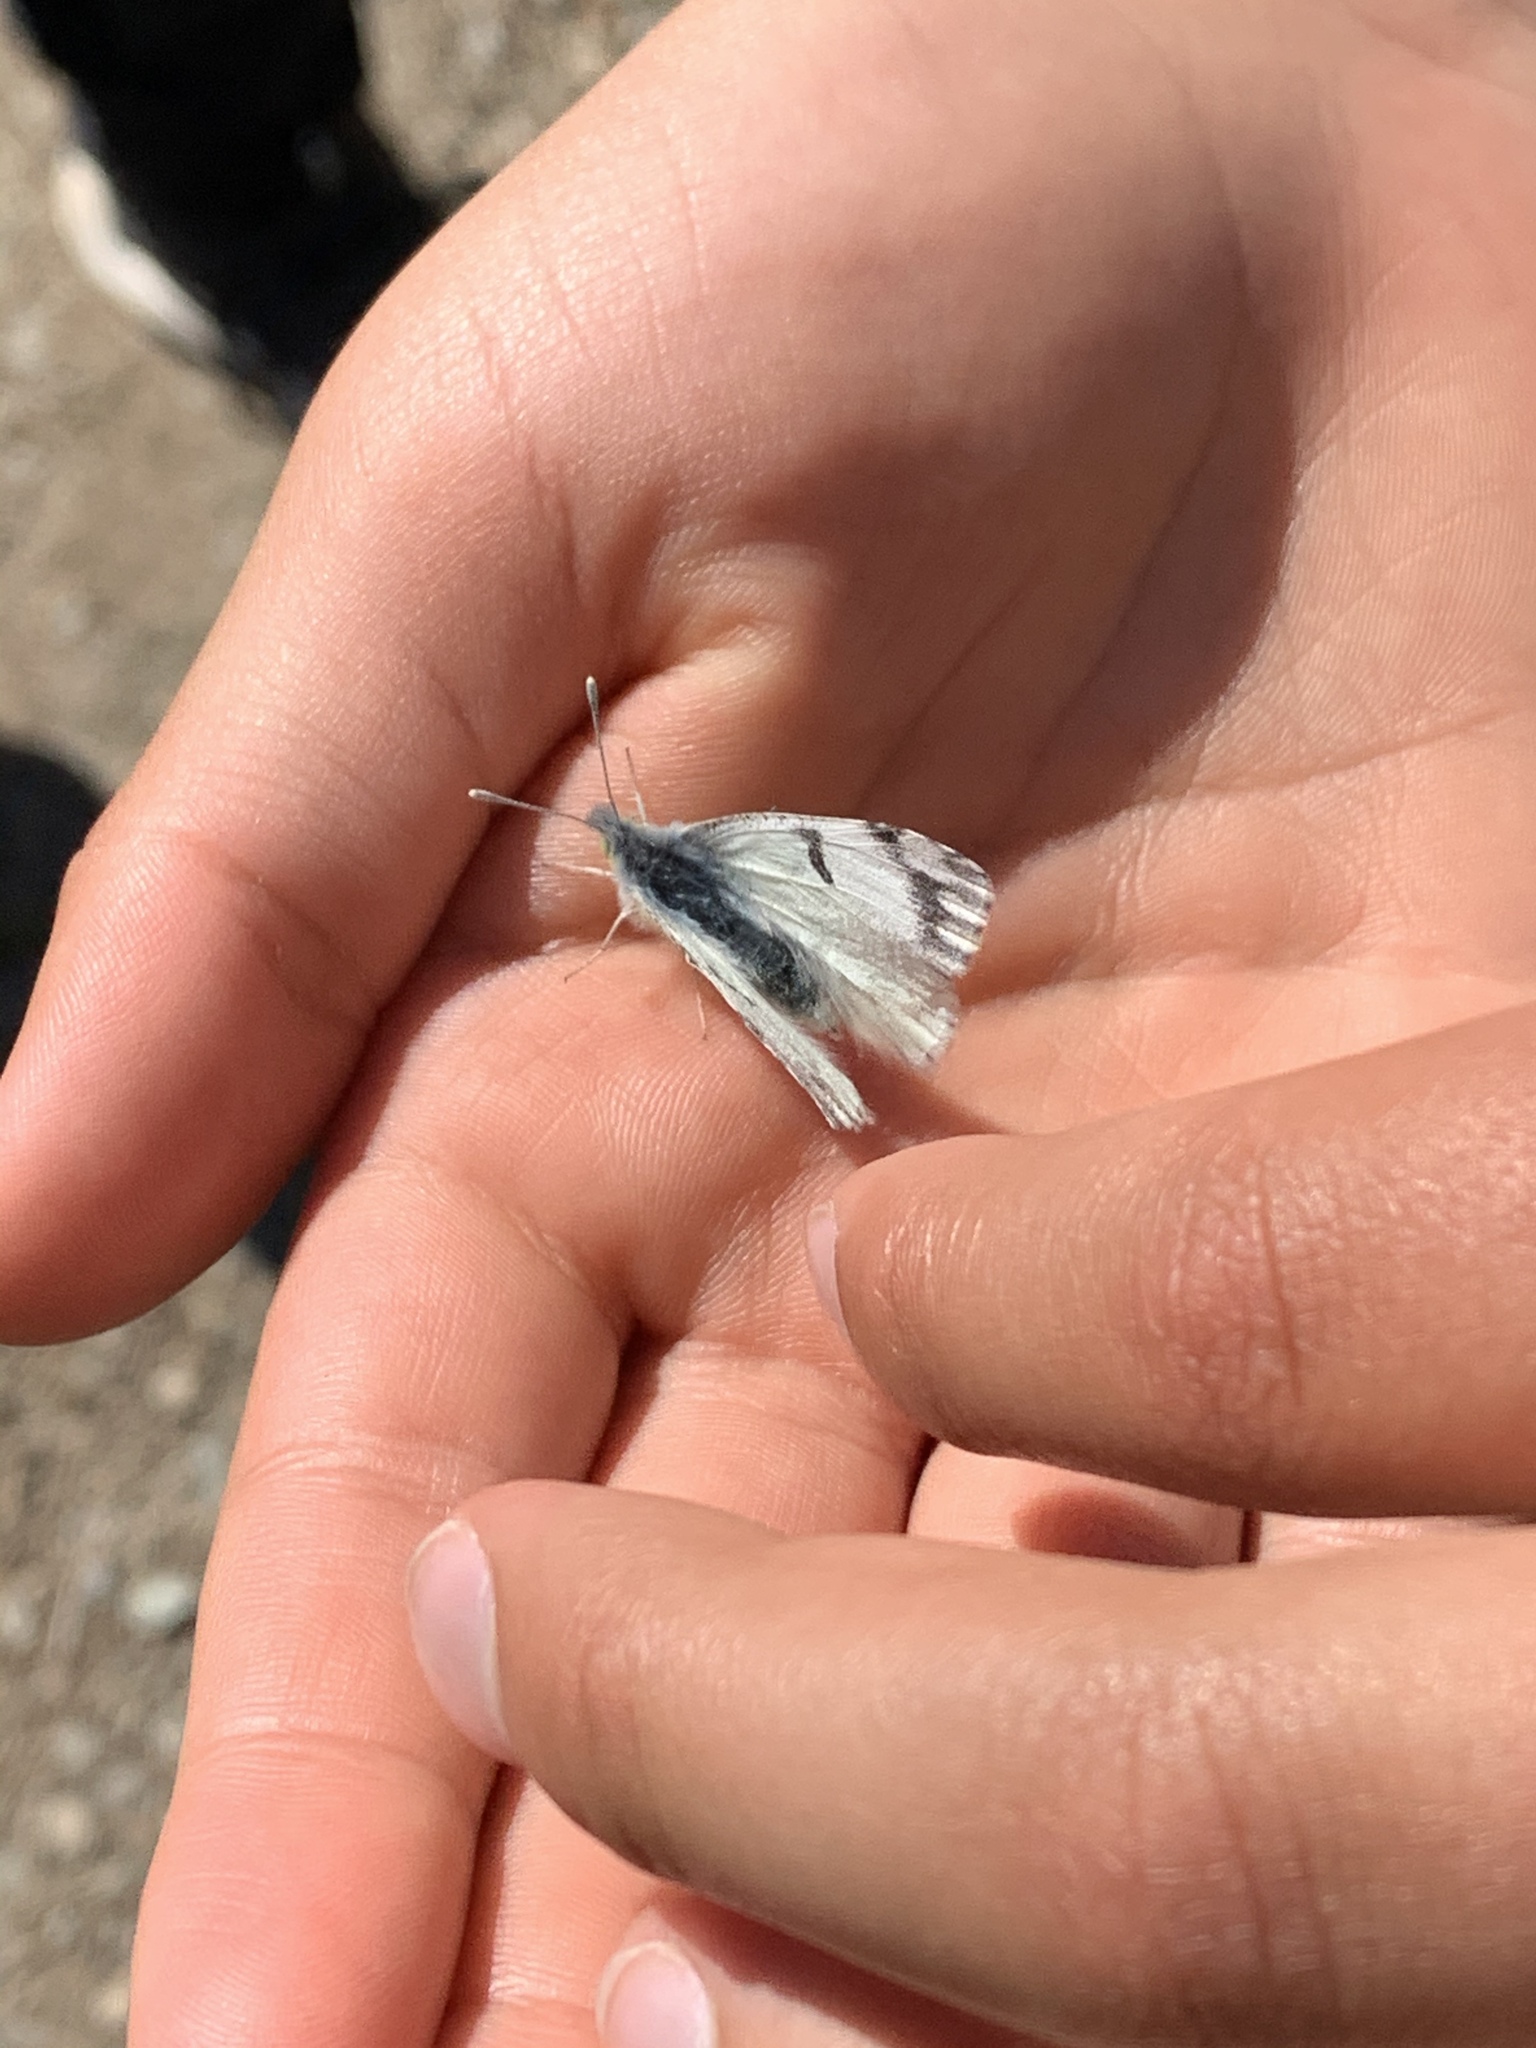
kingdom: Animalia
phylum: Arthropoda
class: Insecta
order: Lepidoptera
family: Pieridae
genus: Euchloe
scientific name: Euchloe ausonides
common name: Creamy marblewing
